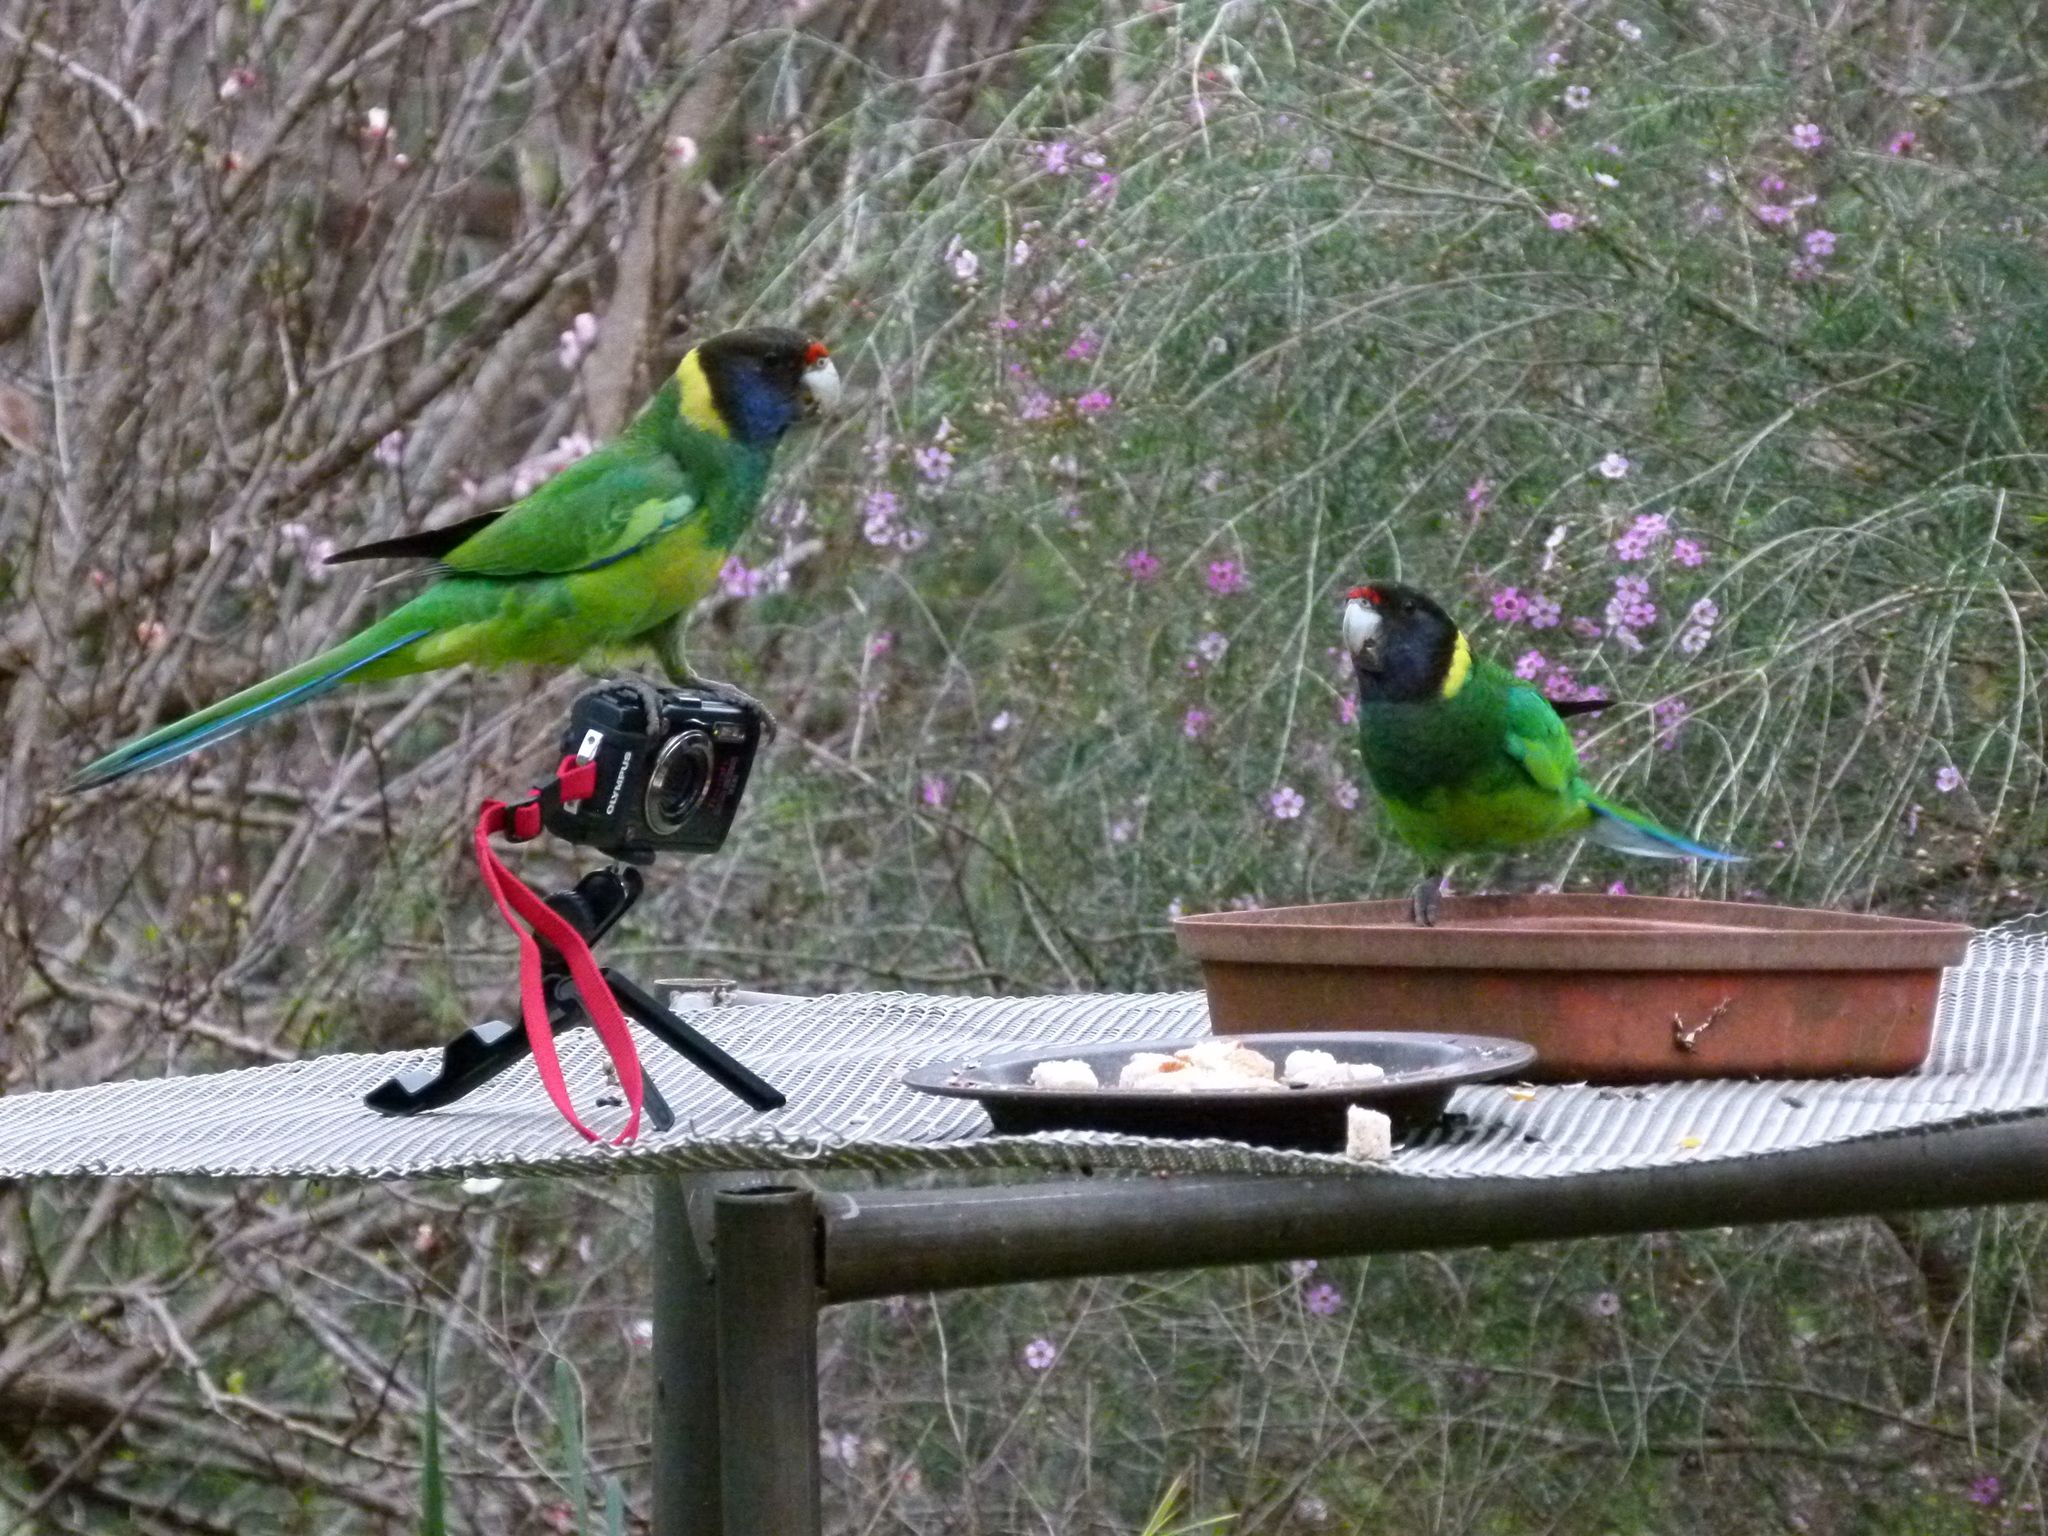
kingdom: Animalia
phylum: Chordata
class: Aves
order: Psittaciformes
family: Psittacidae
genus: Barnardius
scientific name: Barnardius zonarius
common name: Australian ringneck
